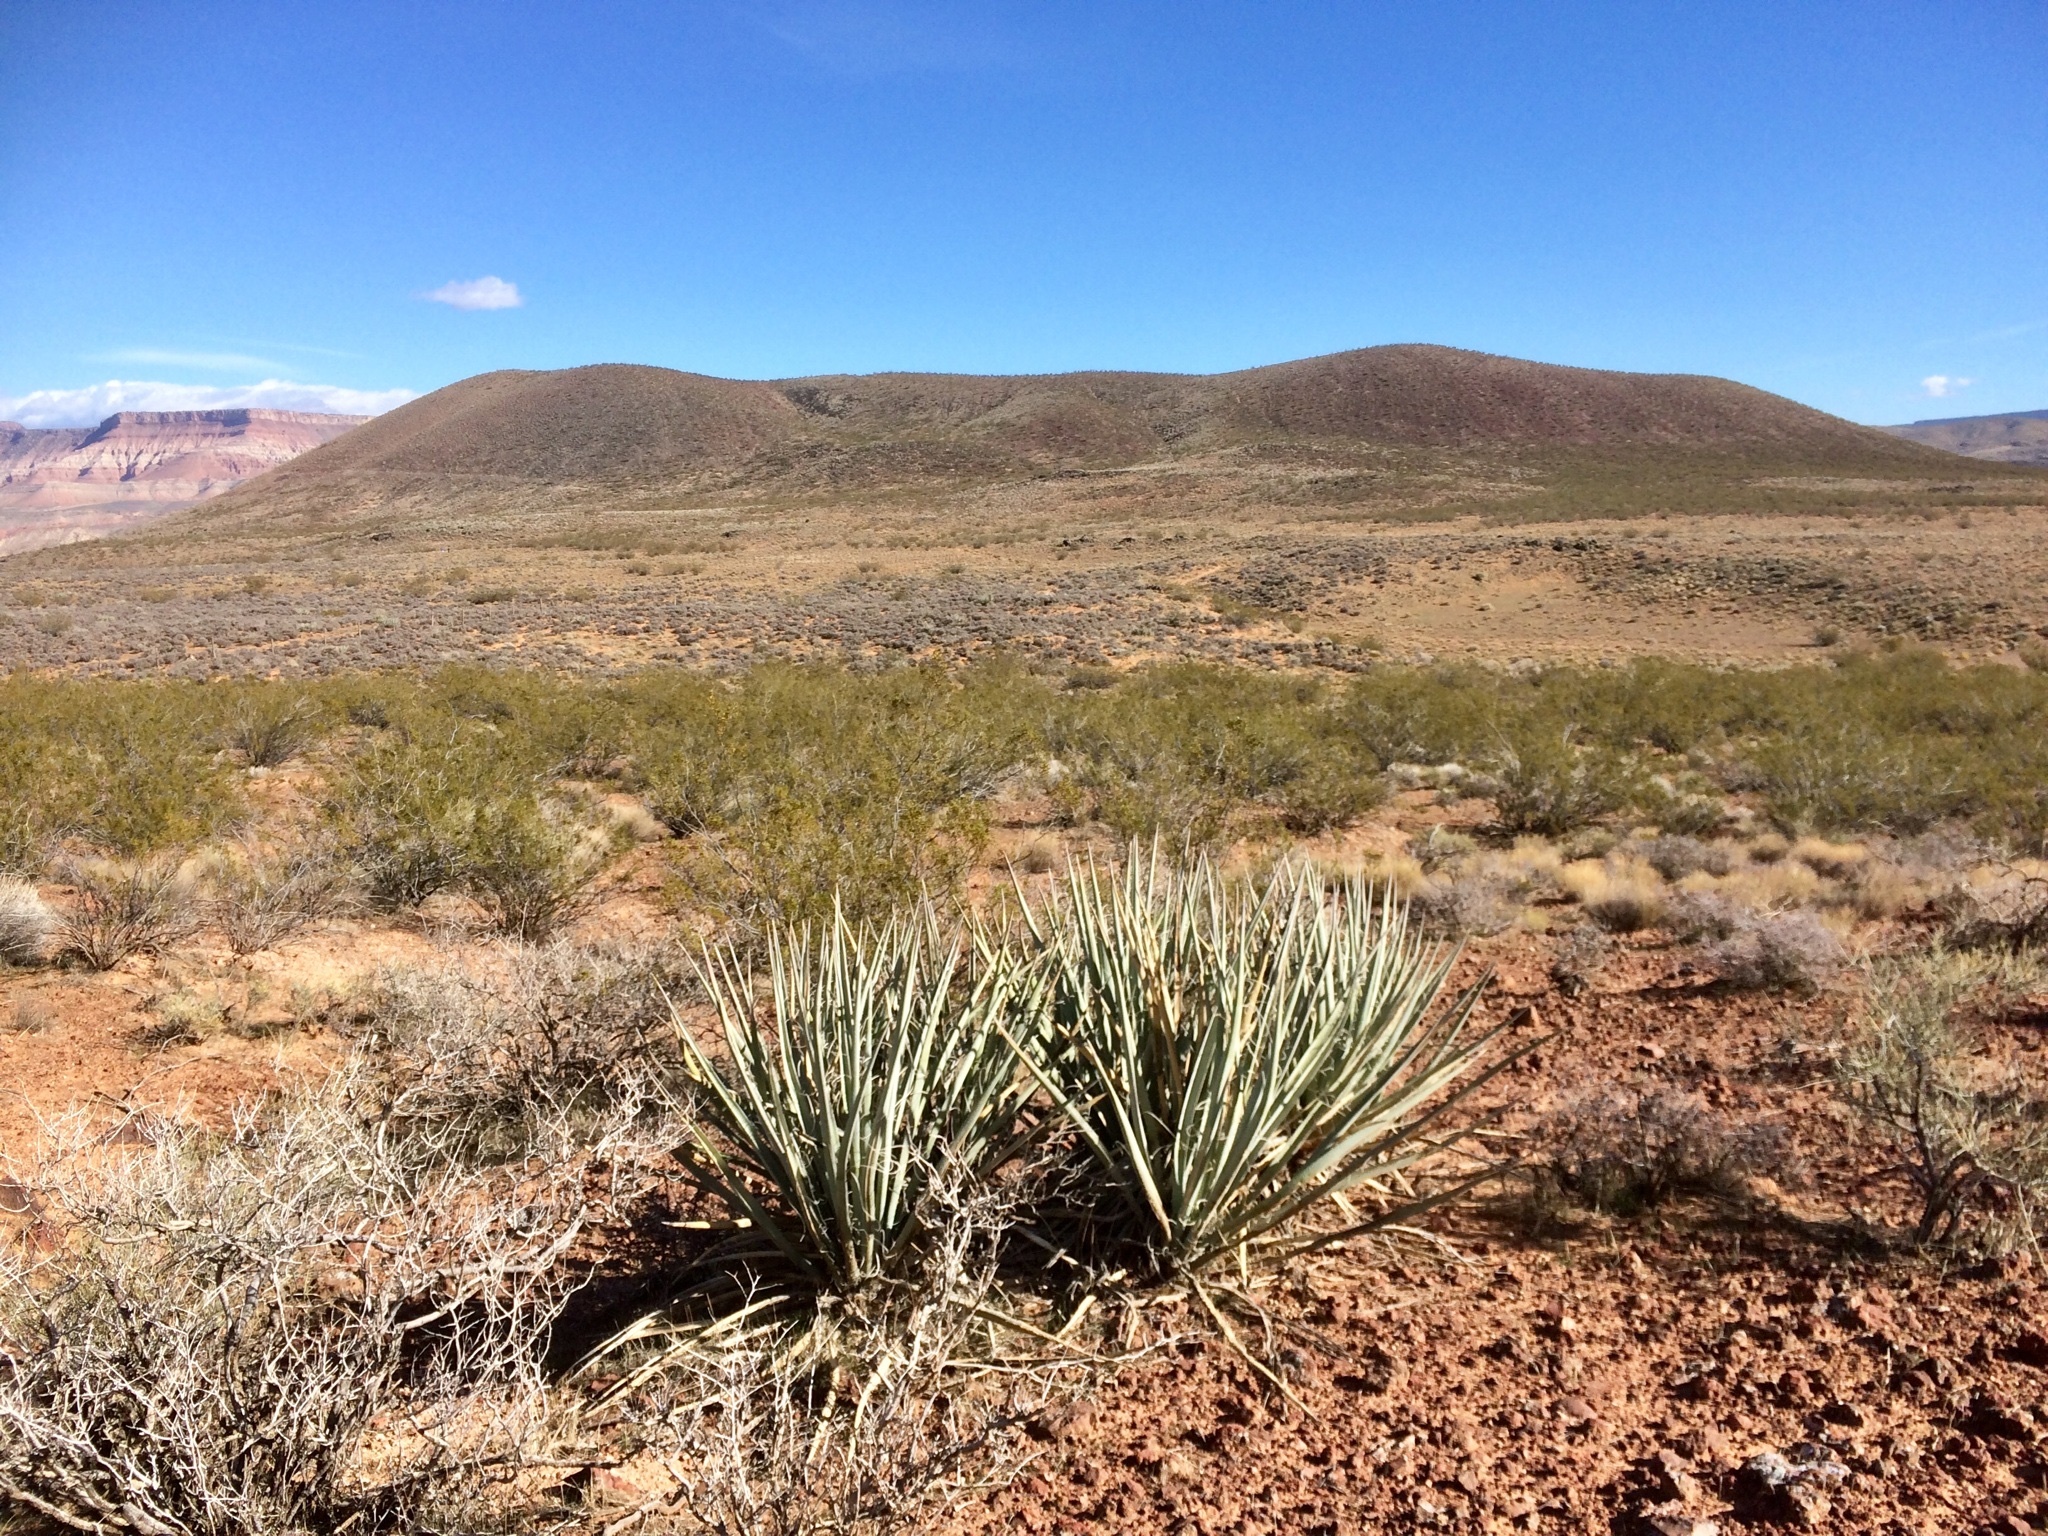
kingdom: Plantae
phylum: Tracheophyta
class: Liliopsida
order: Asparagales
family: Asparagaceae
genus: Yucca
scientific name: Yucca baccata
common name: Banana yucca
